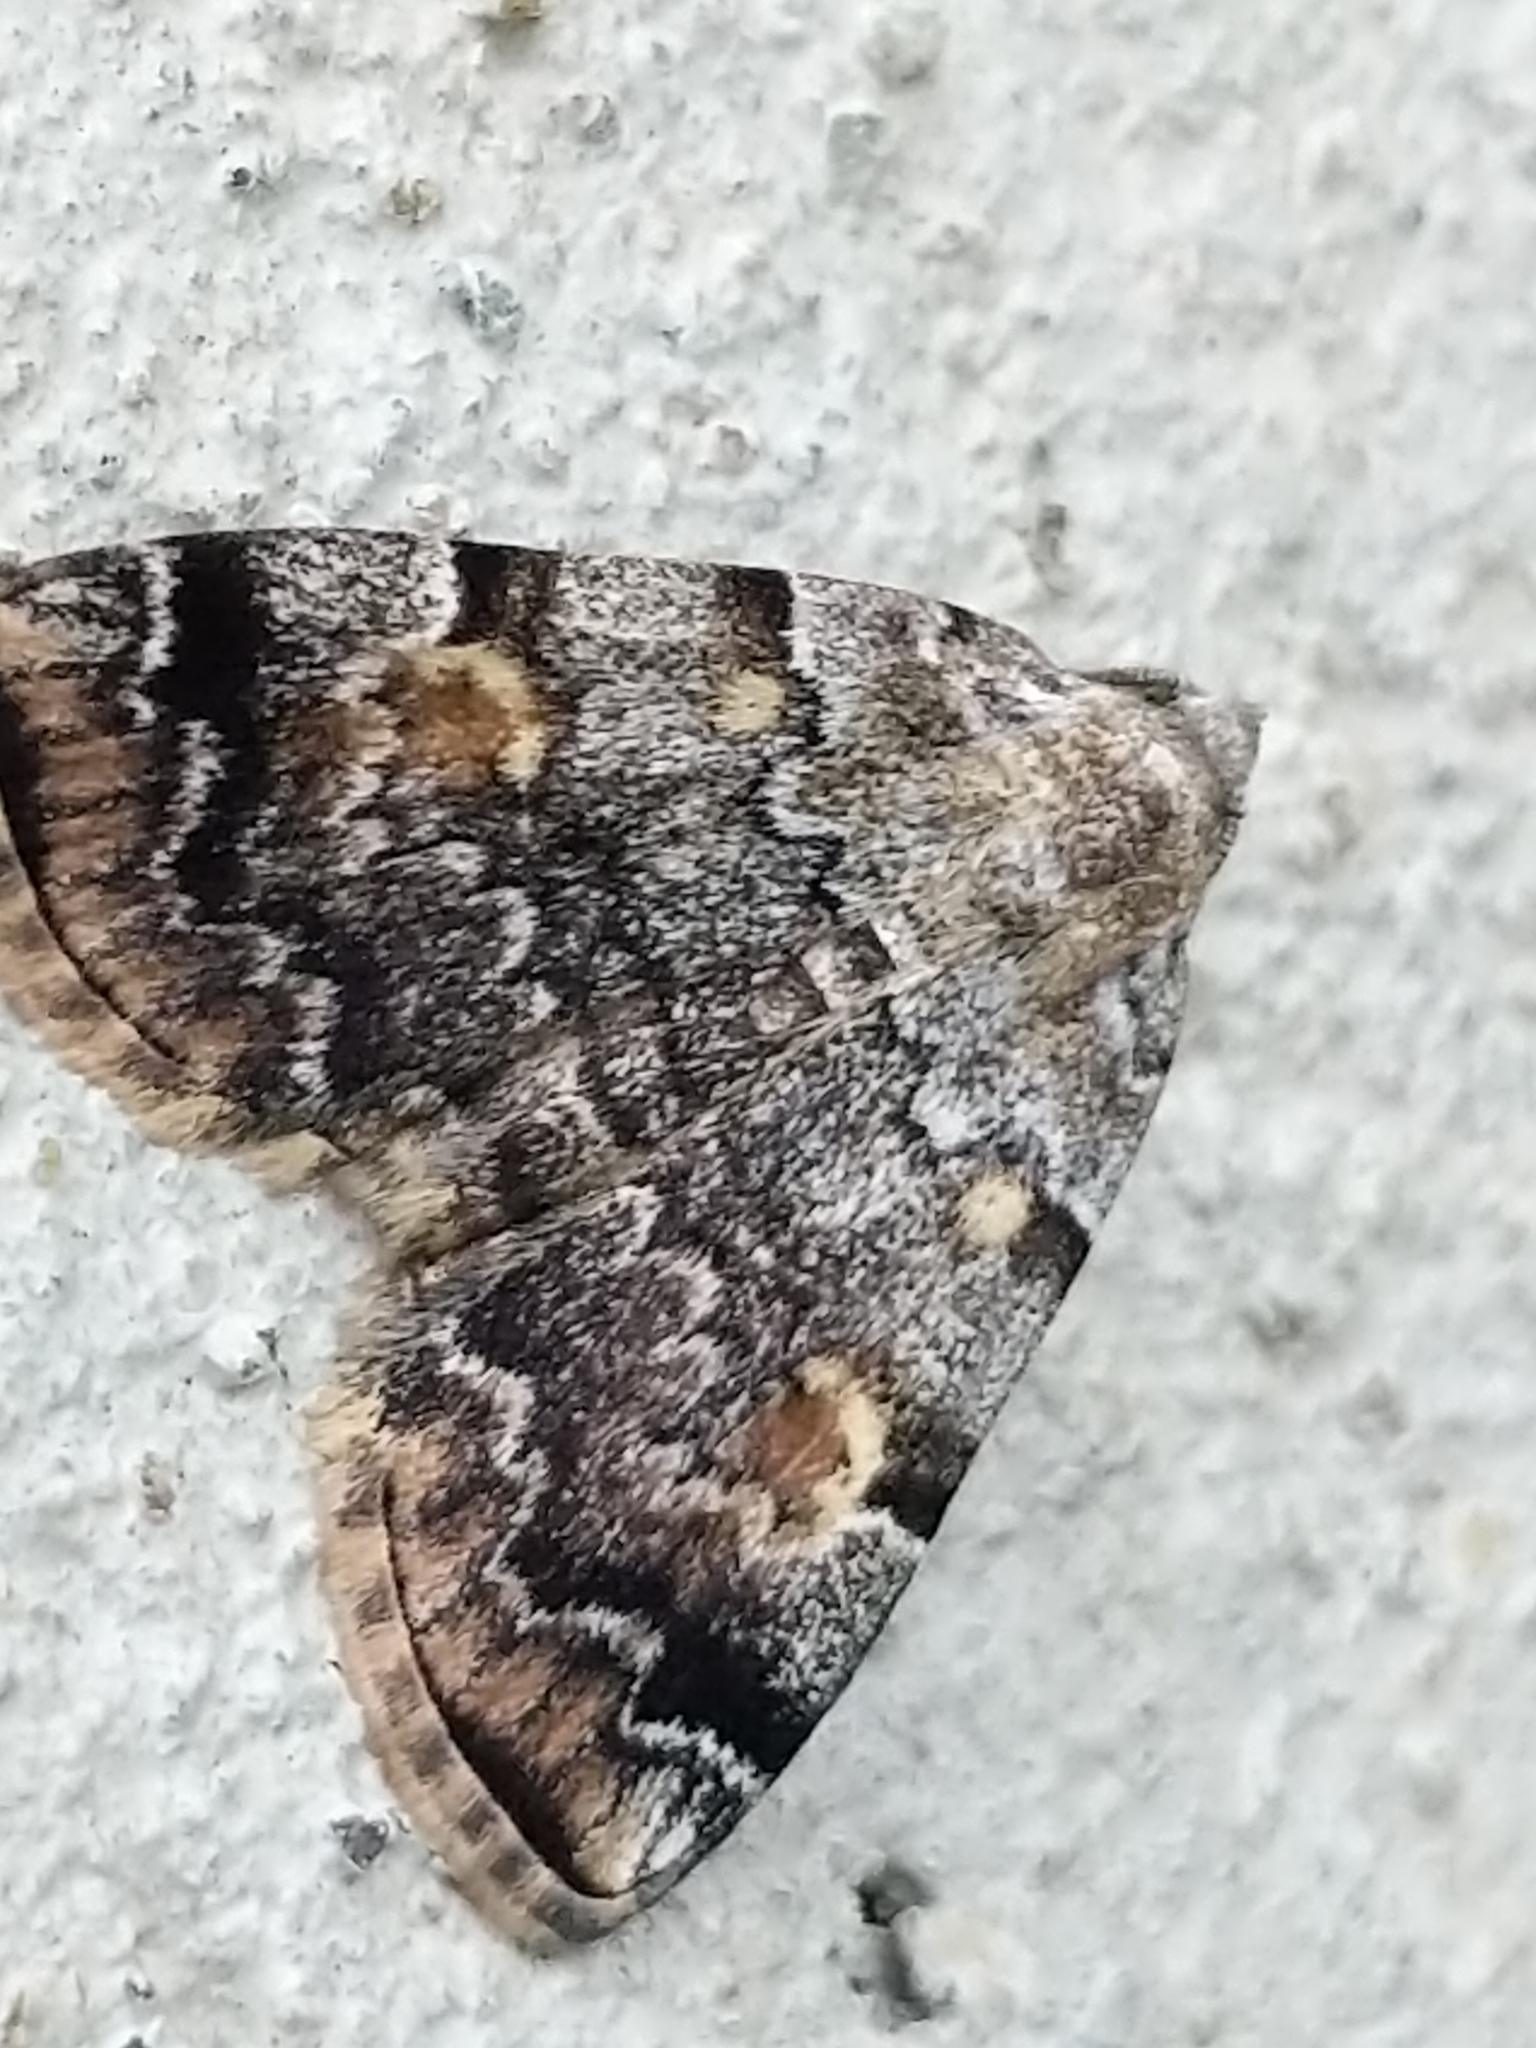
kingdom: Animalia
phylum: Arthropoda
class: Insecta
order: Lepidoptera
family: Erebidae
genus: Idia
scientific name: Idia americalis
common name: American idia moth
